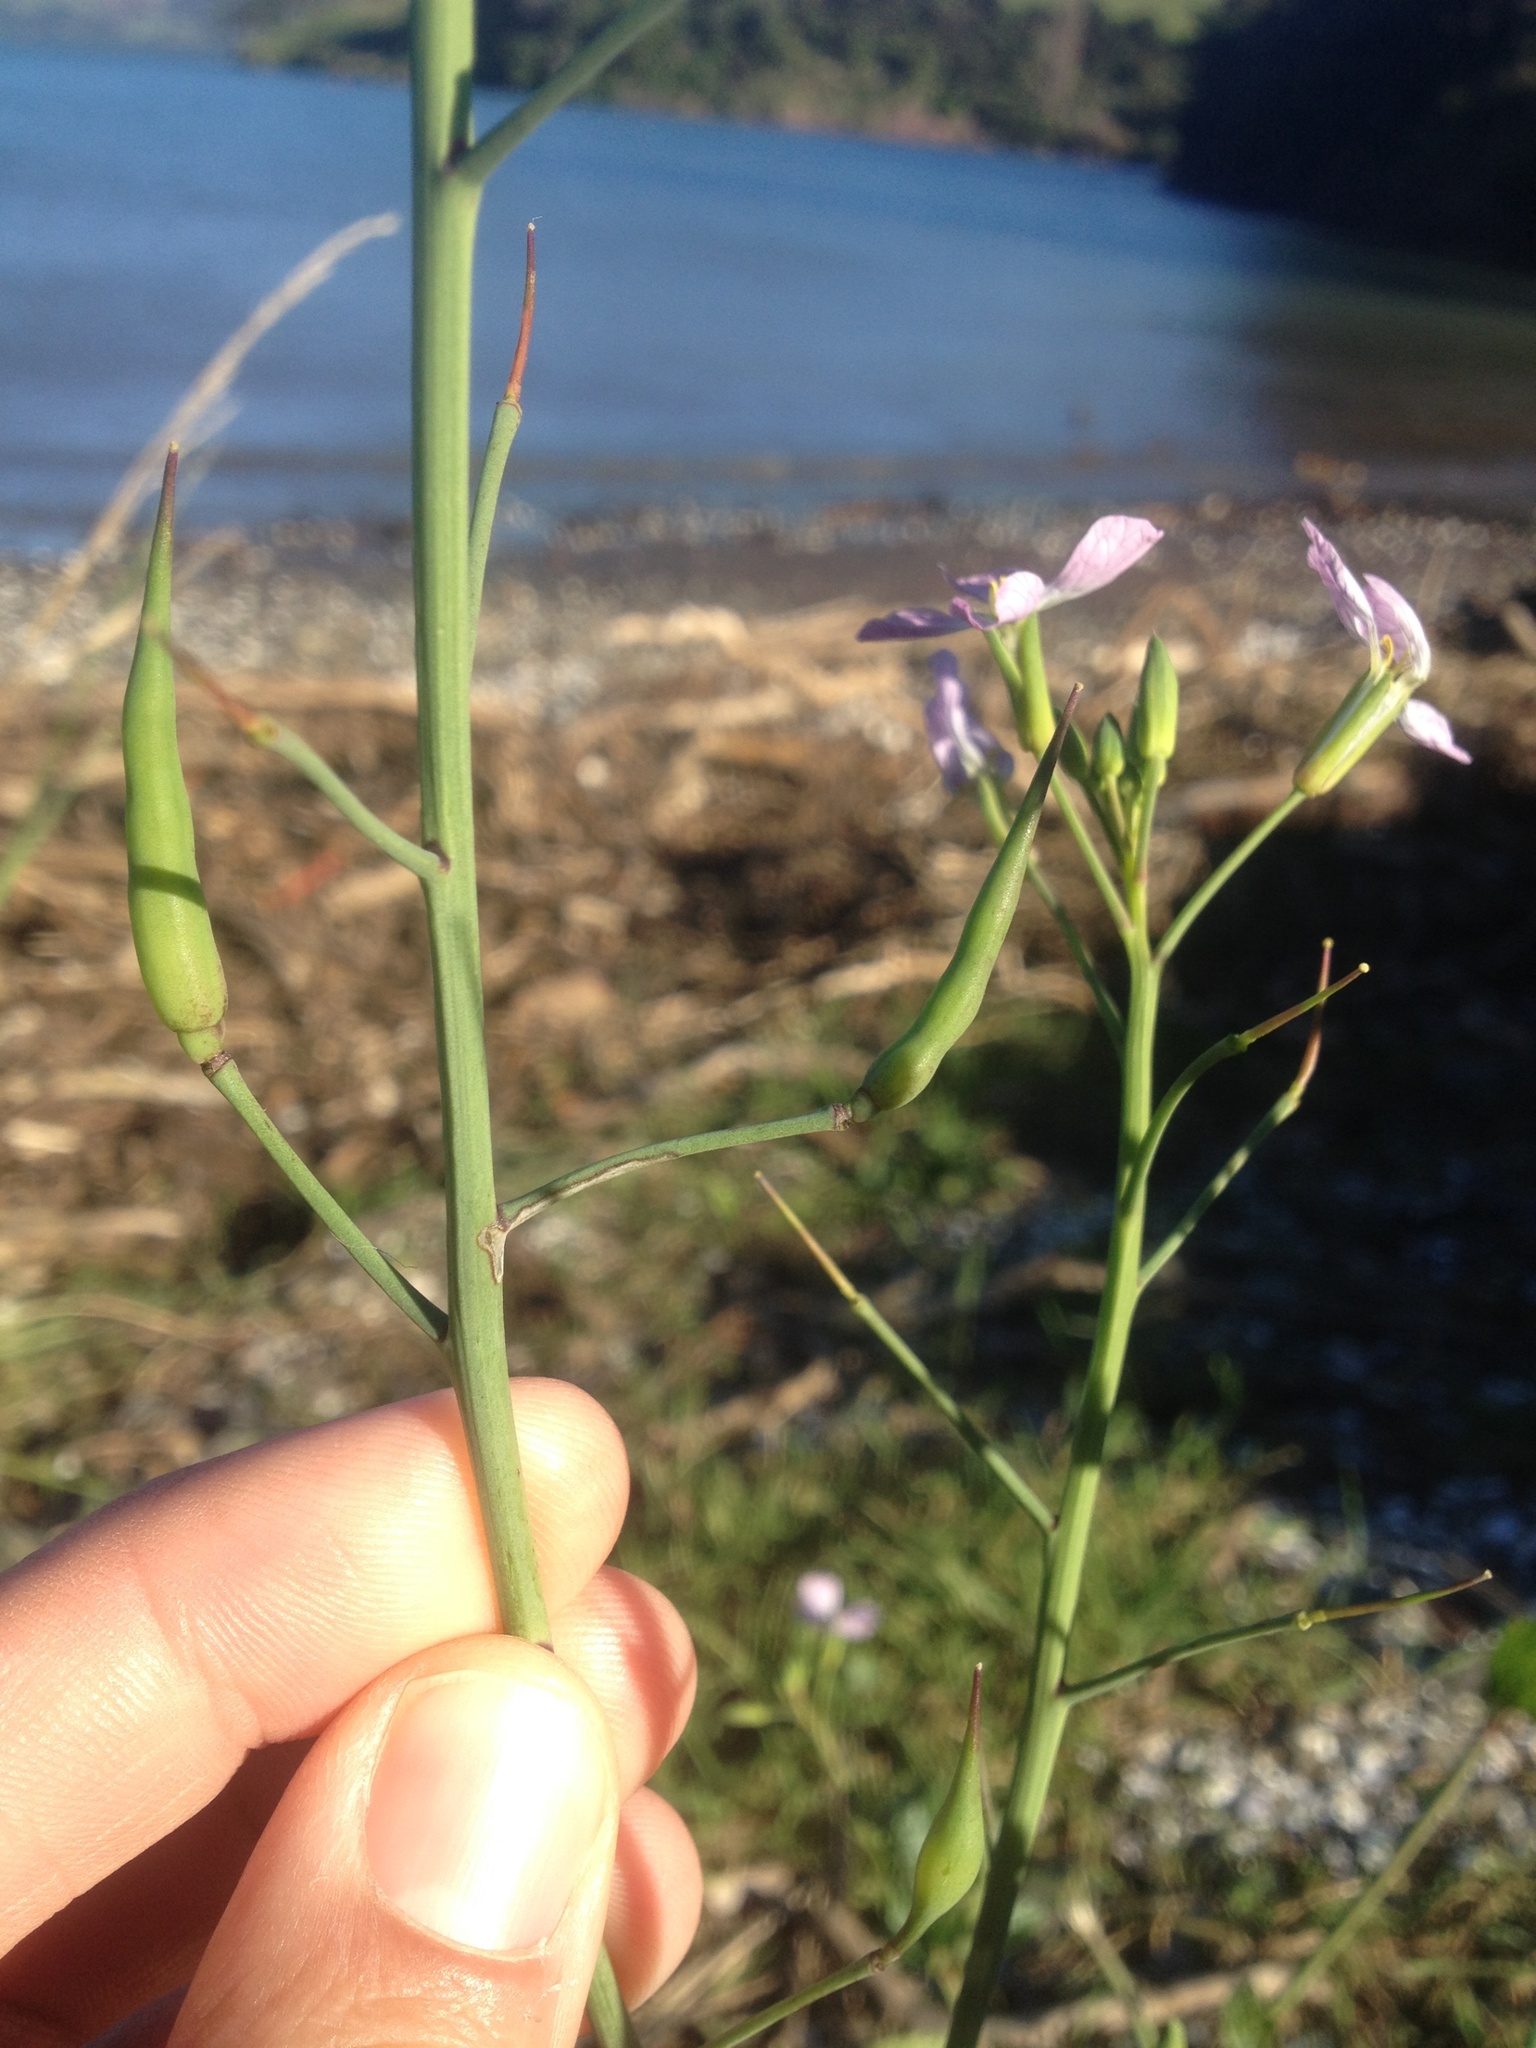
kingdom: Plantae
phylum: Tracheophyta
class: Magnoliopsida
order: Brassicales
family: Brassicaceae
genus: Raphanus
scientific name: Raphanus raphanistrum
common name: Wild radish
